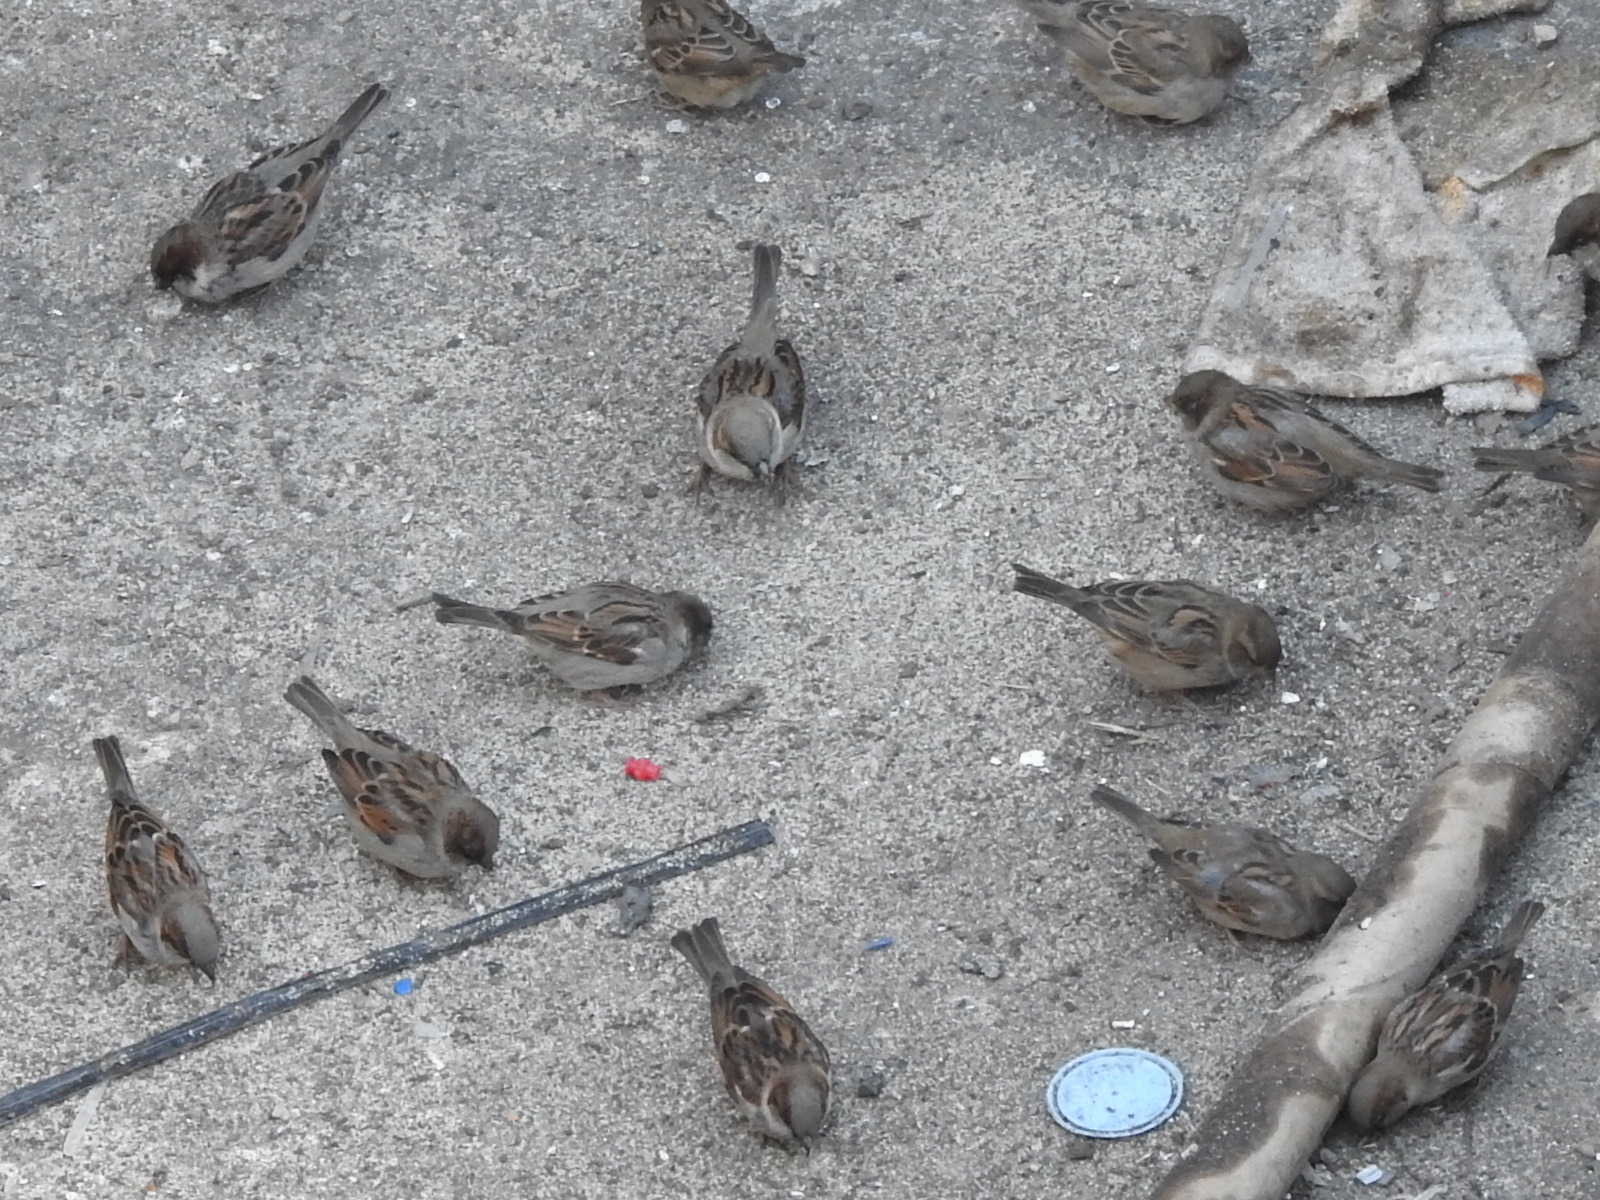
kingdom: Animalia
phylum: Chordata
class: Aves
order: Passeriformes
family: Passeridae
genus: Passer
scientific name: Passer domesticus
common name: House sparrow
